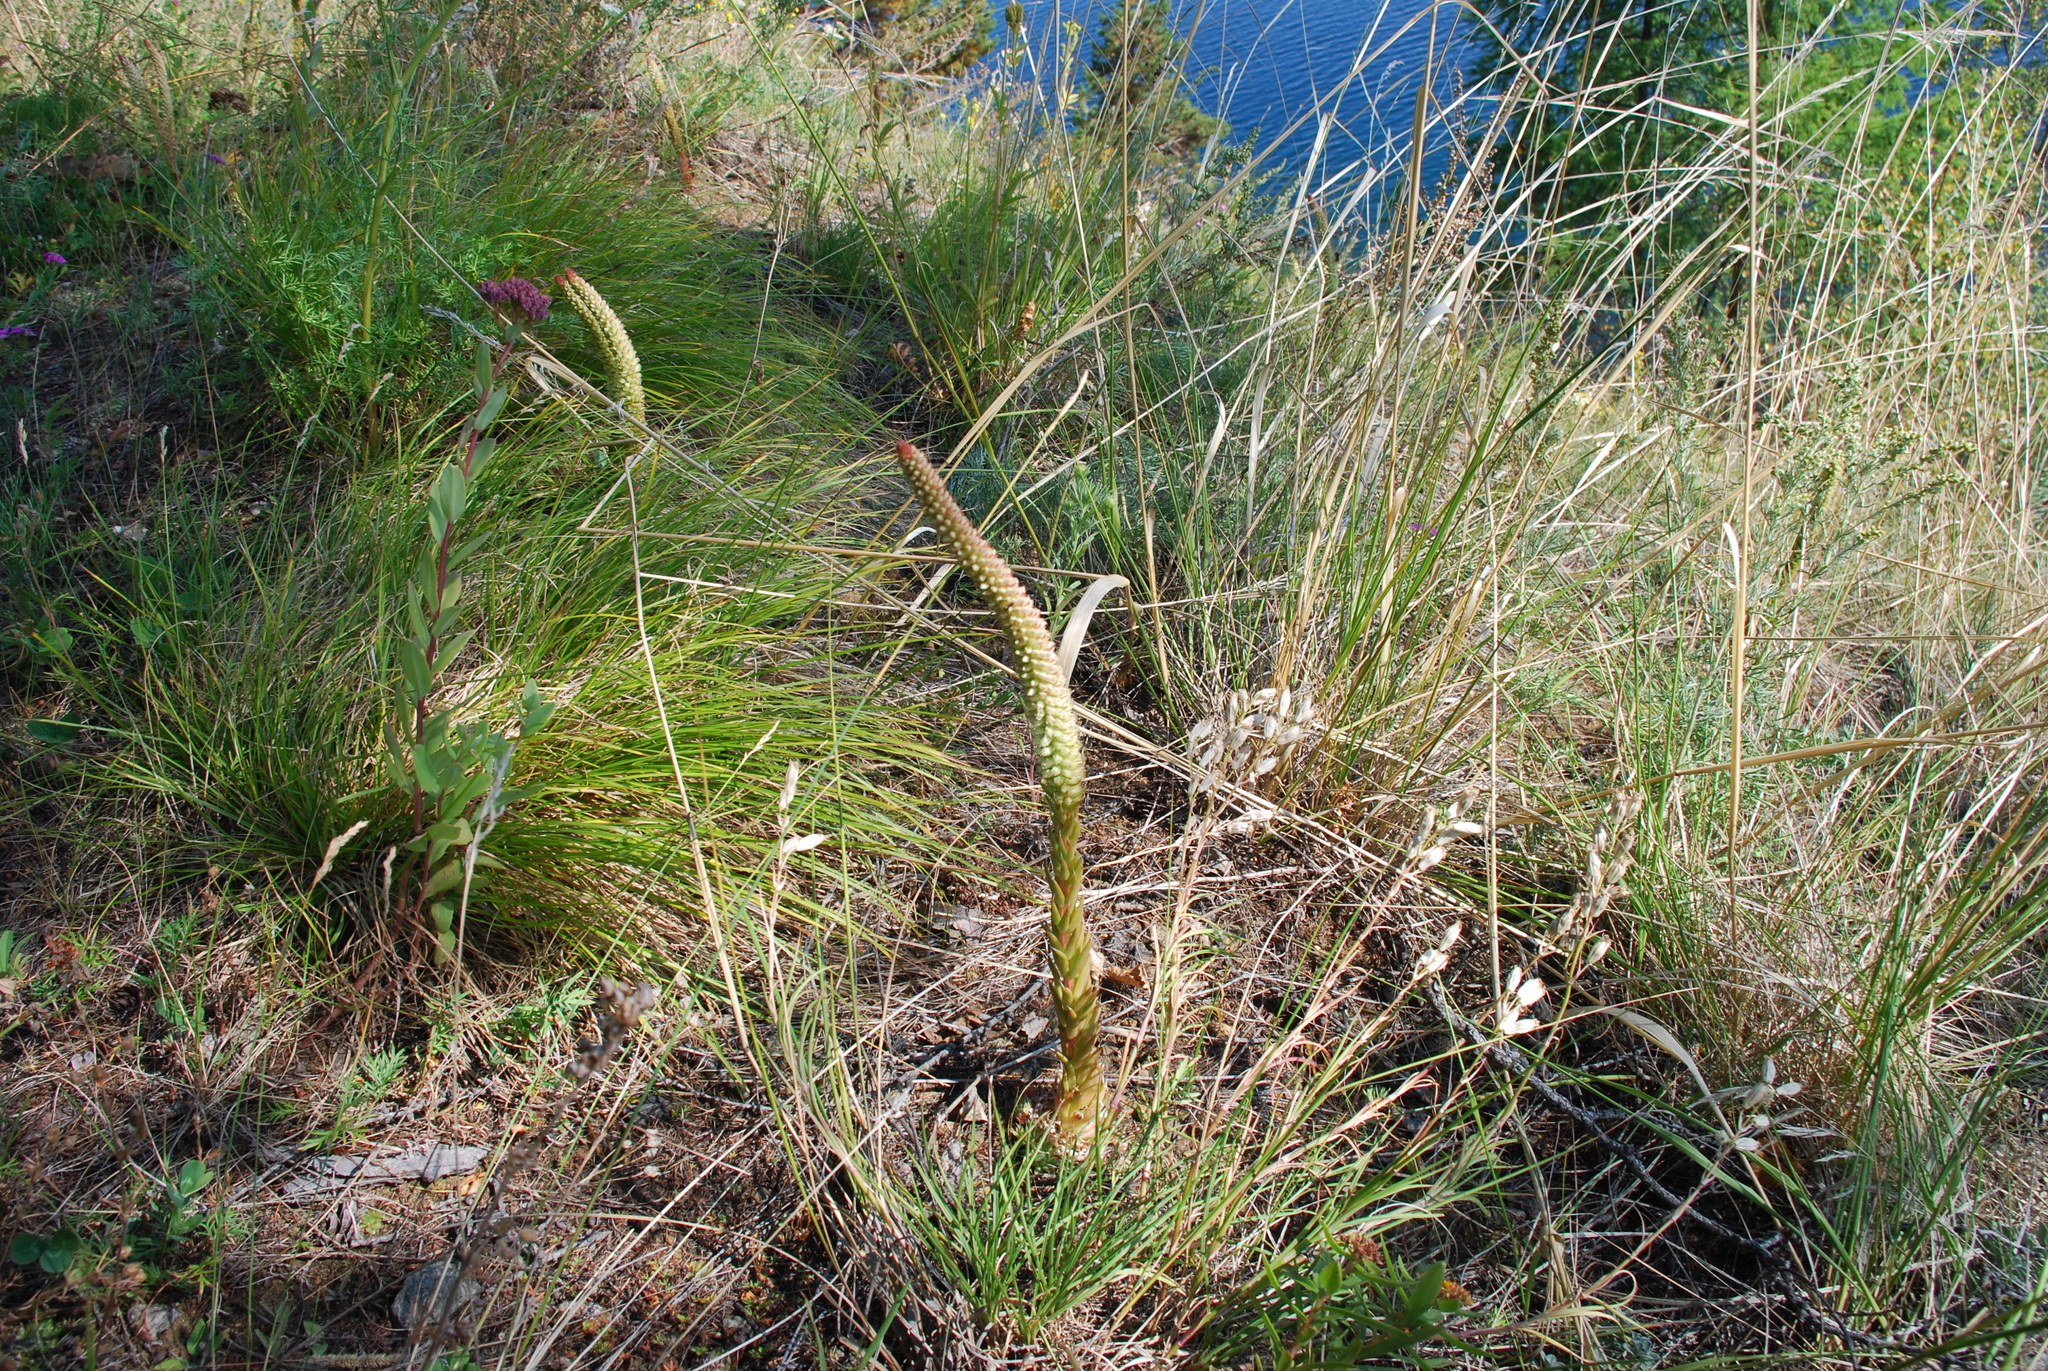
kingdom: Plantae
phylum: Tracheophyta
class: Magnoliopsida
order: Saxifragales
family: Crassulaceae
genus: Orostachys
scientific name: Orostachys spinosa
